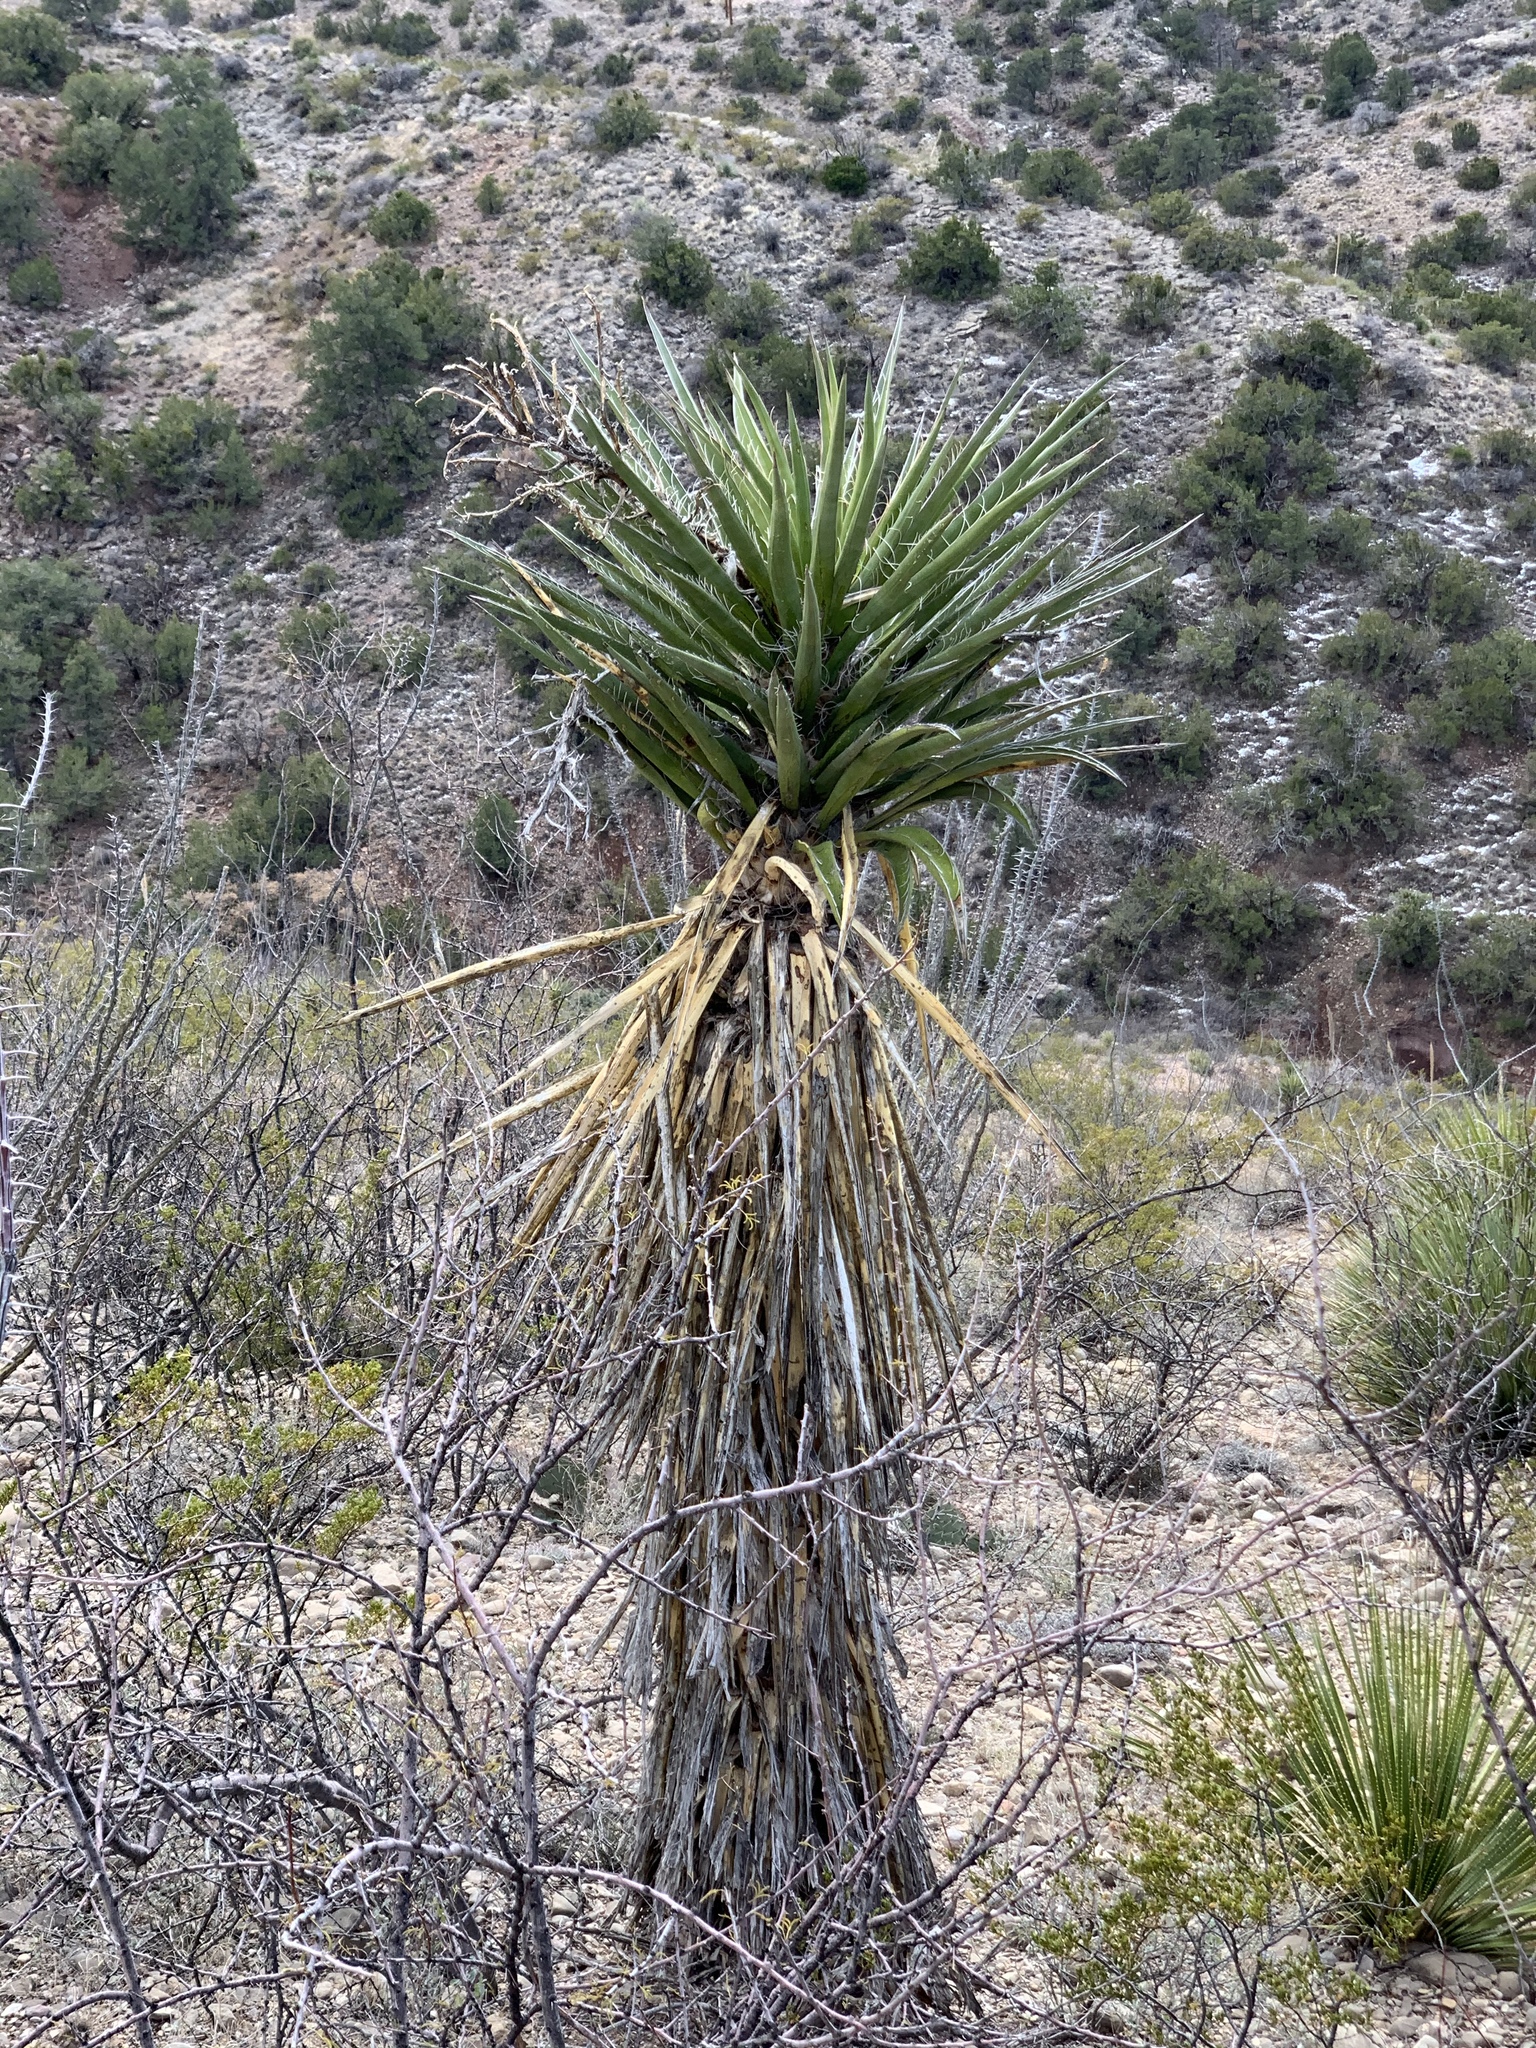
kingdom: Plantae
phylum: Tracheophyta
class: Liliopsida
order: Asparagales
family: Asparagaceae
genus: Yucca
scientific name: Yucca treculiana
